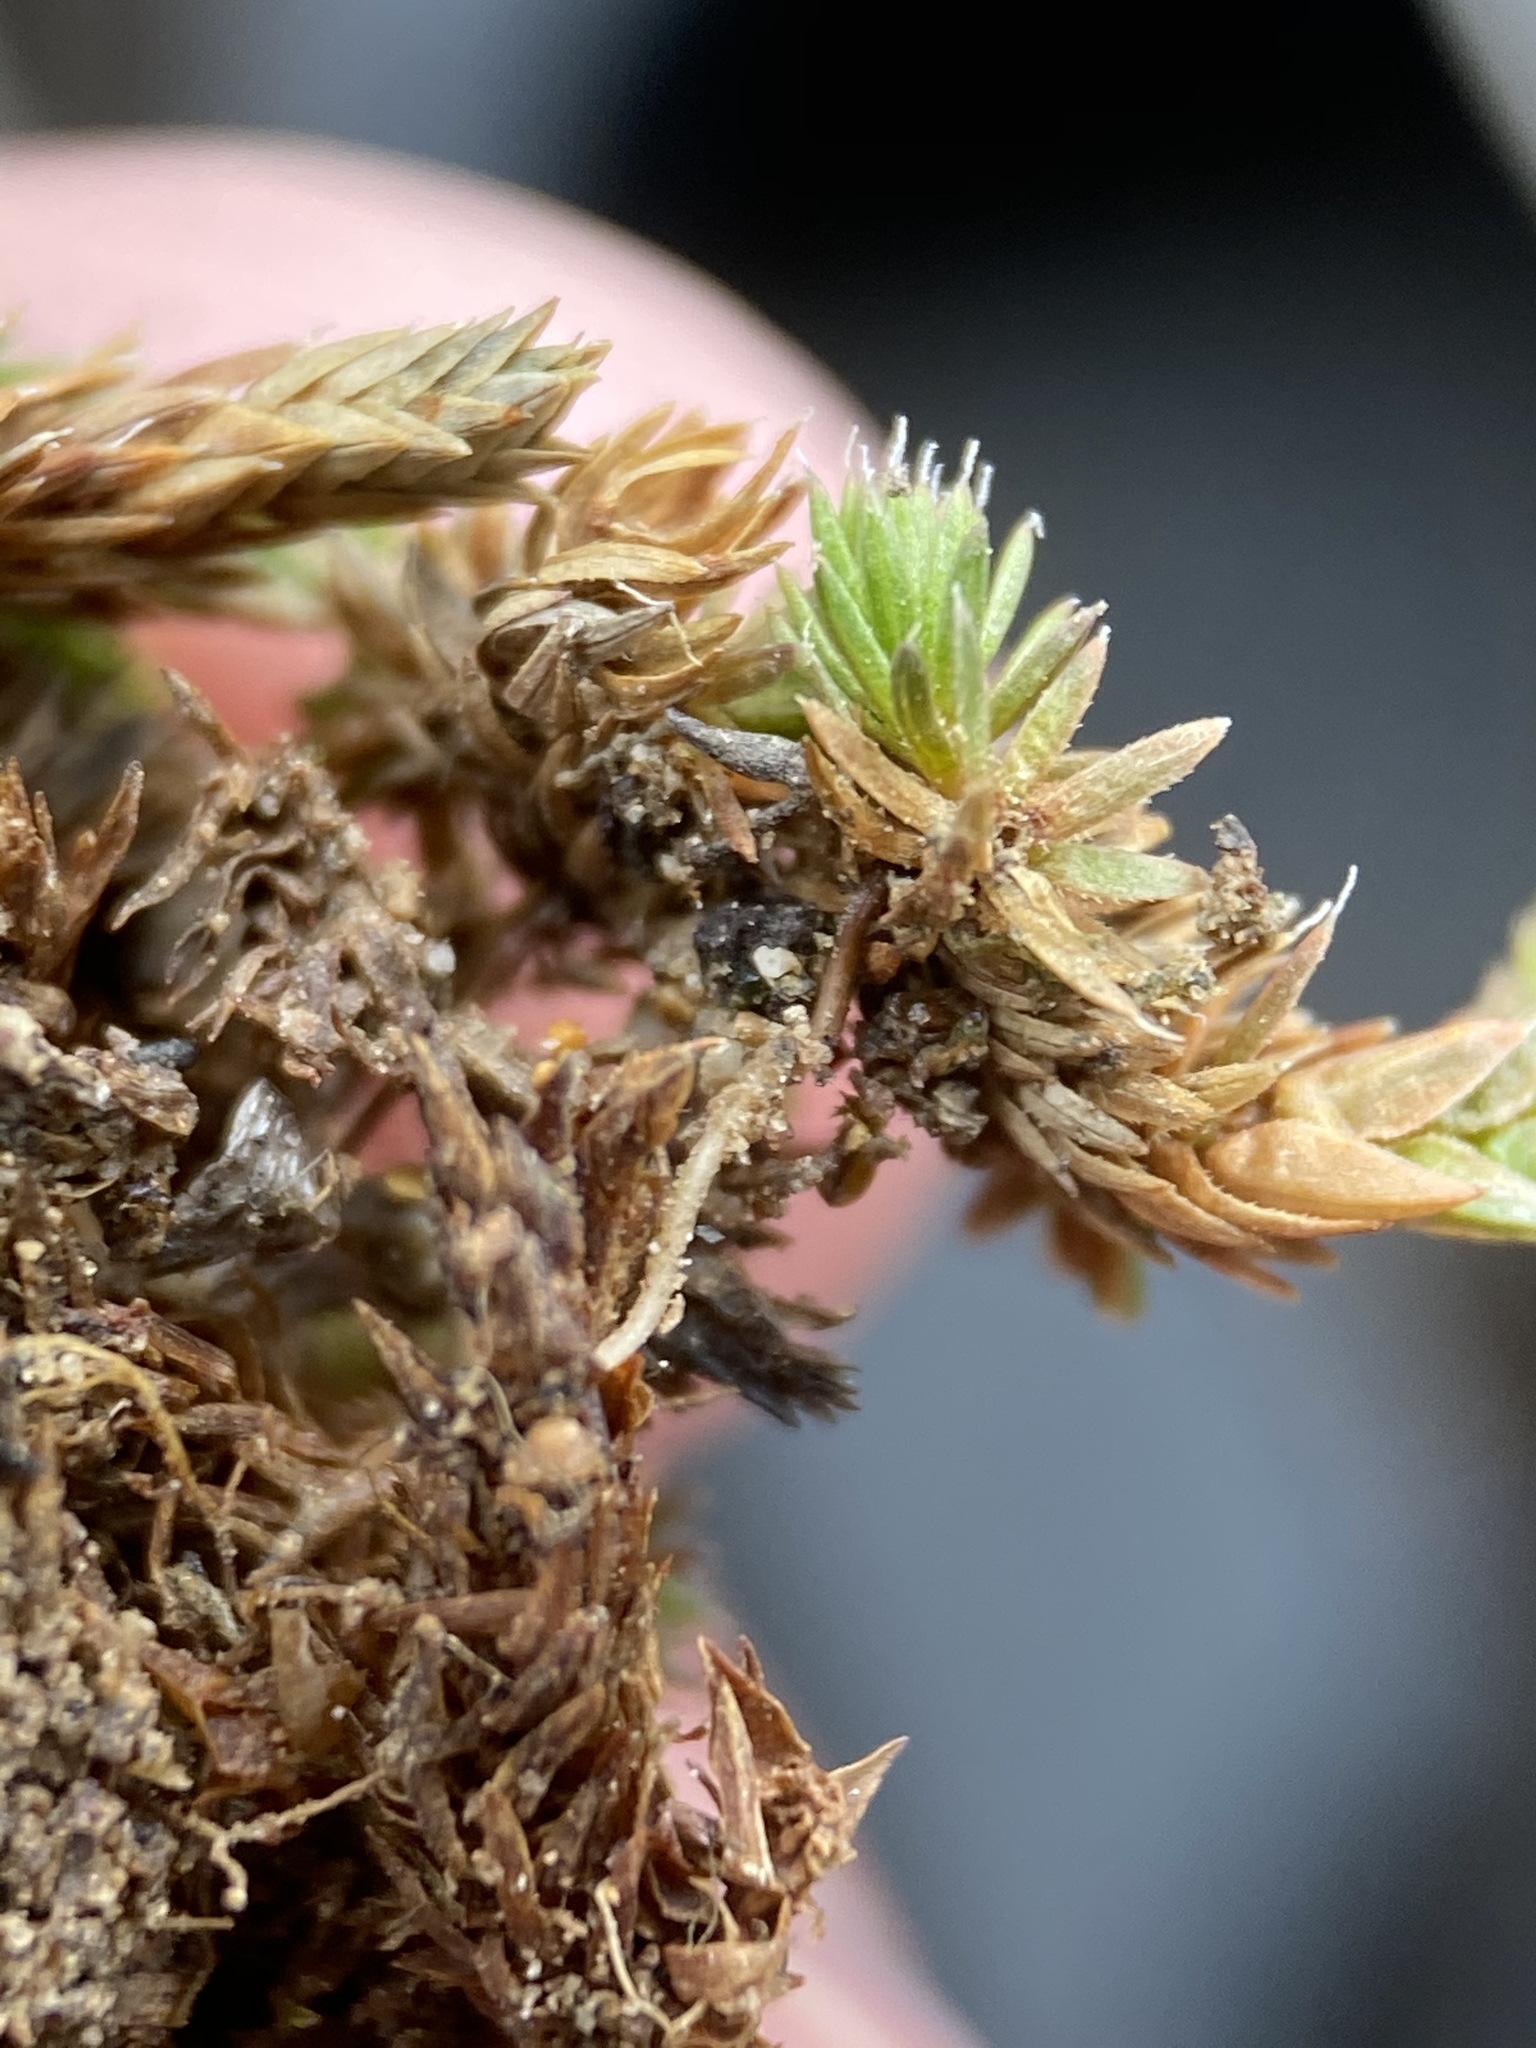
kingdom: Plantae
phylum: Tracheophyta
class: Lycopodiopsida
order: Selaginellales
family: Selaginellaceae
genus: Selaginella
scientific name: Selaginella leucobryoides
